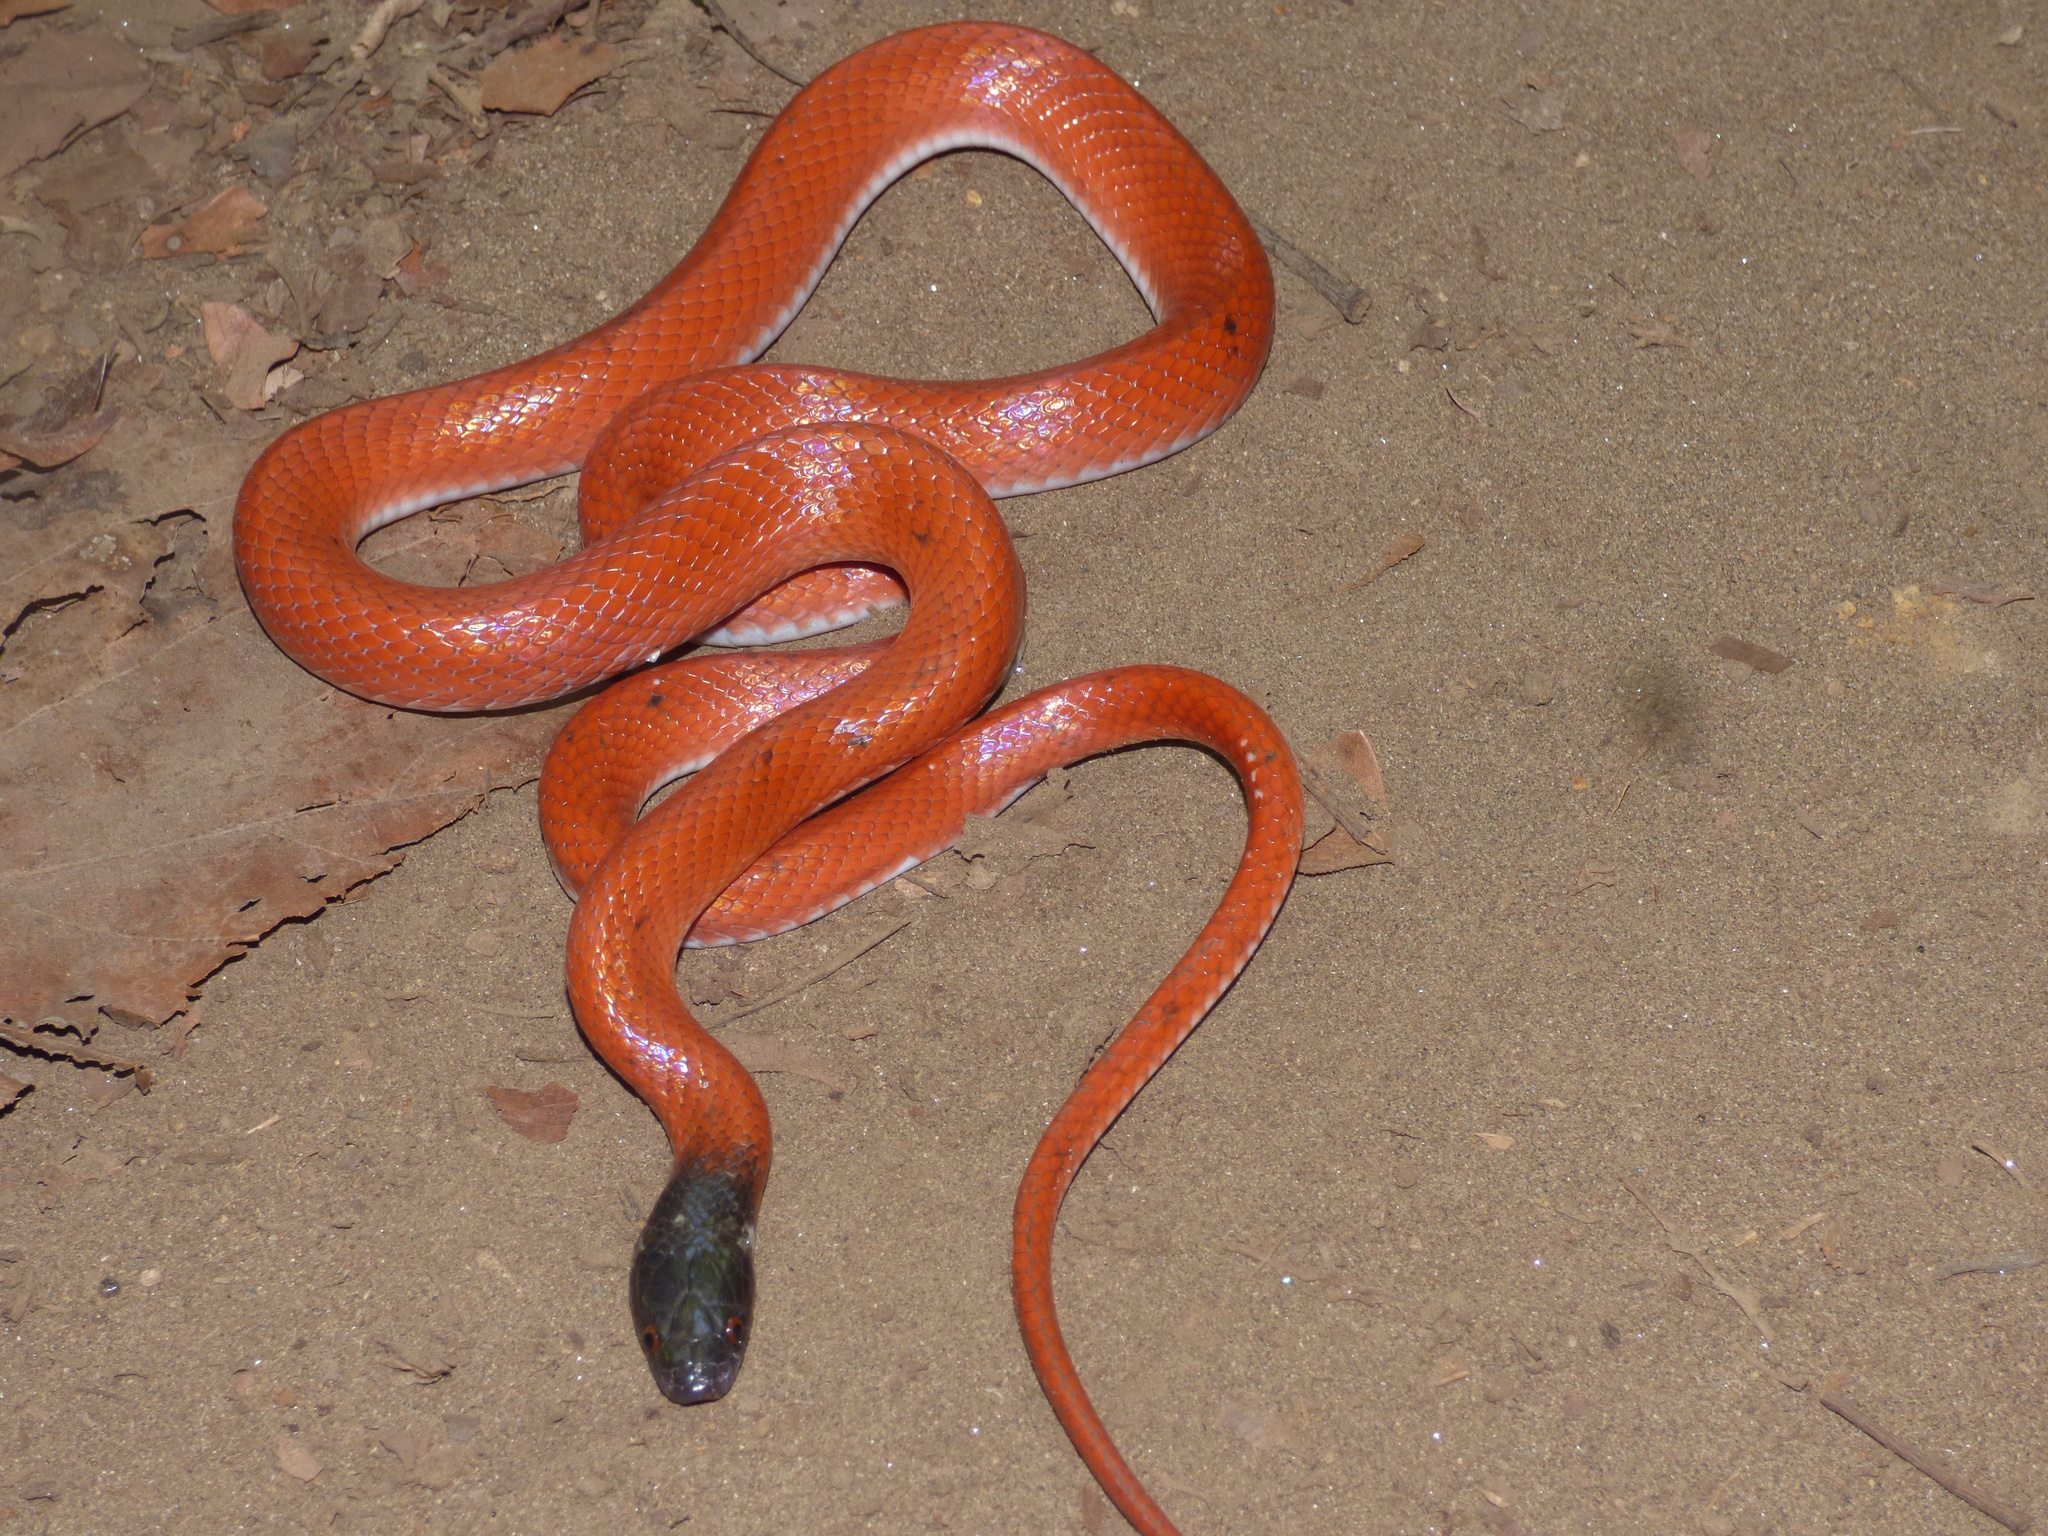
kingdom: Animalia
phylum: Chordata
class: Squamata
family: Colubridae
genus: Pseudoboa
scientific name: Pseudoboa neuwiedii
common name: Neuwied's false boa
